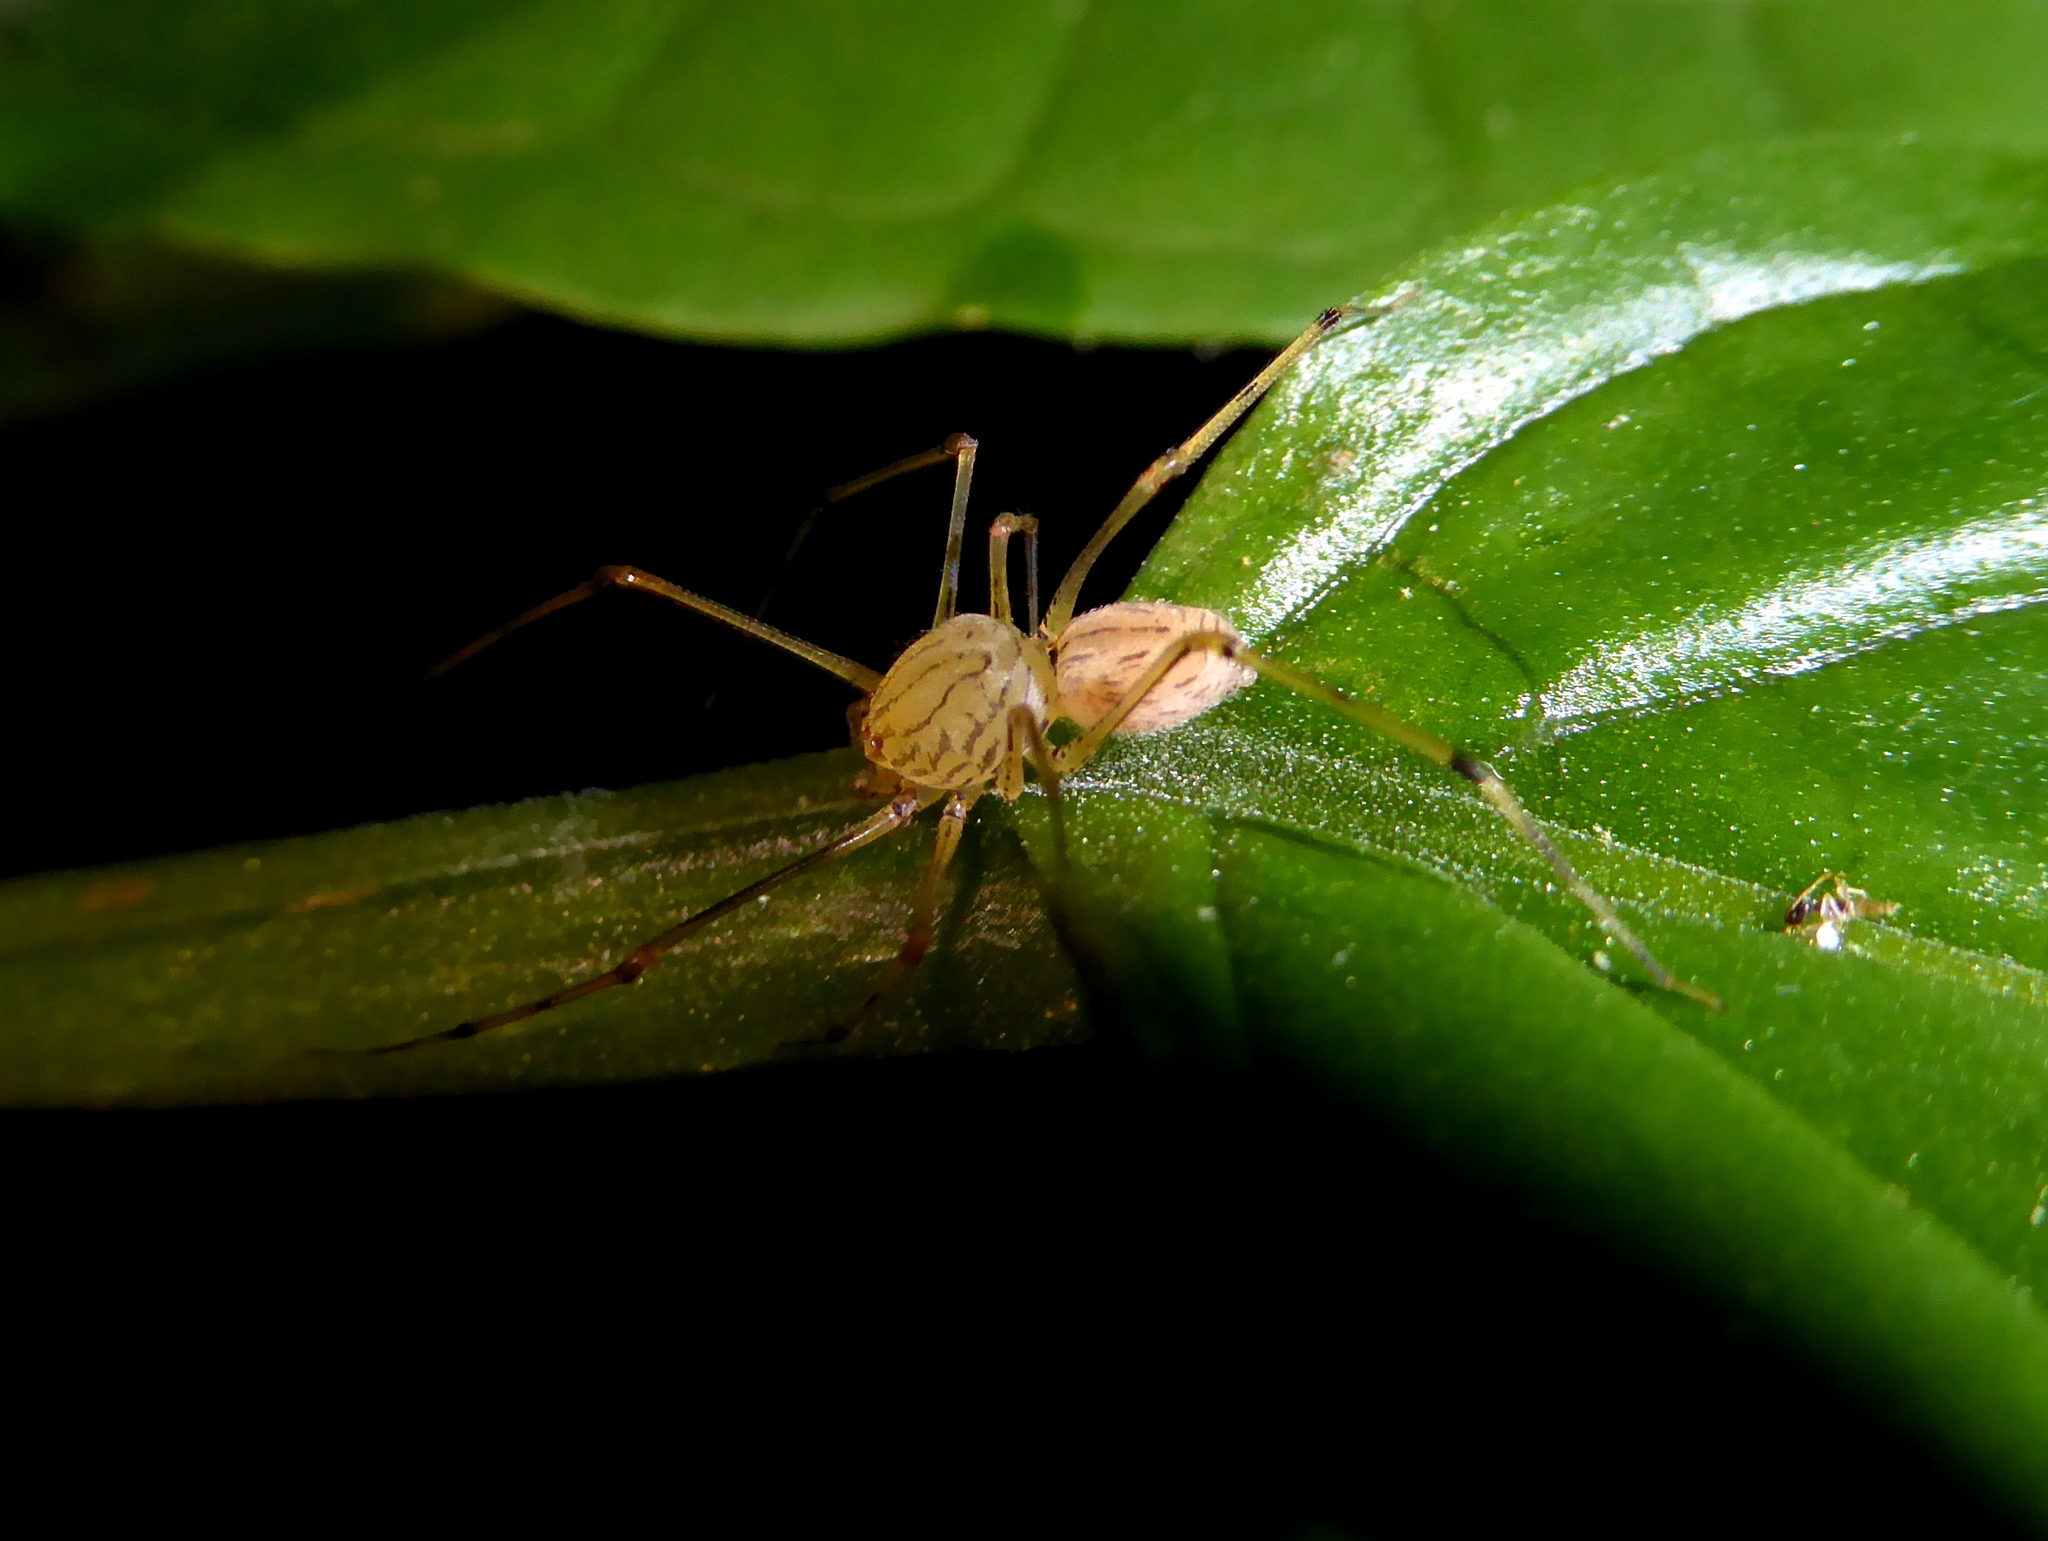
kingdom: Animalia
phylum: Arthropoda
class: Arachnida
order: Araneae
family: Scytodidae
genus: Scytodes
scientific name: Scytodes pallida
